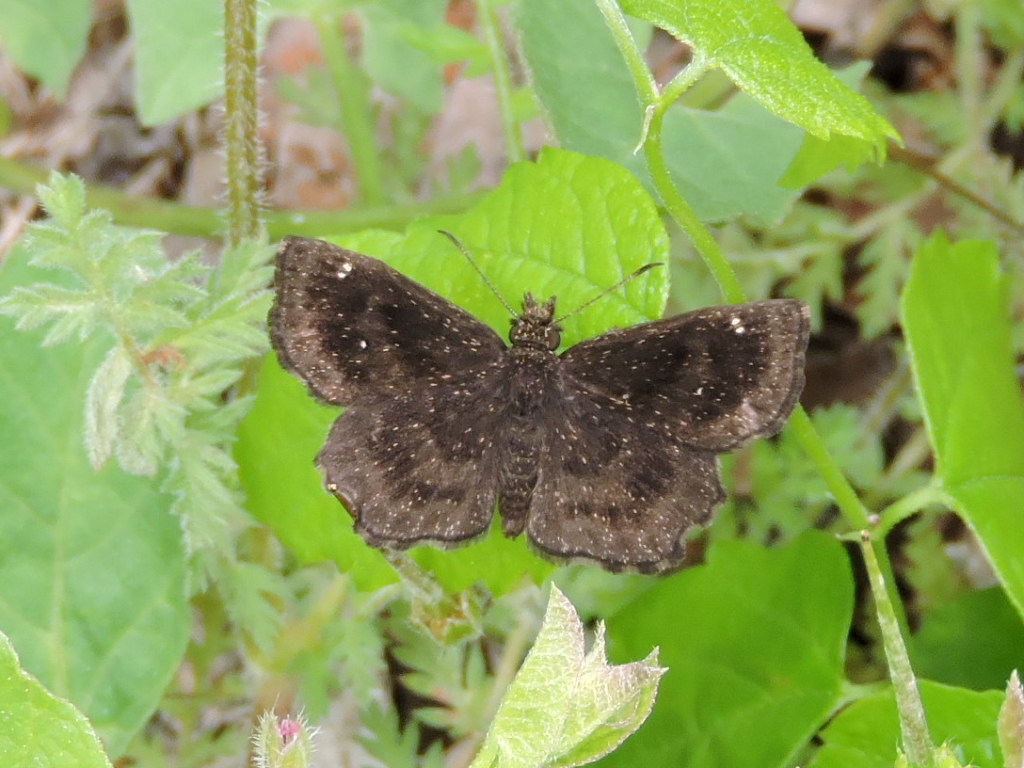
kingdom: Animalia
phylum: Arthropoda
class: Insecta
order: Lepidoptera
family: Hesperiidae
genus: Staphylus
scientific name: Staphylus mazans
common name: Mazans scallopwing
